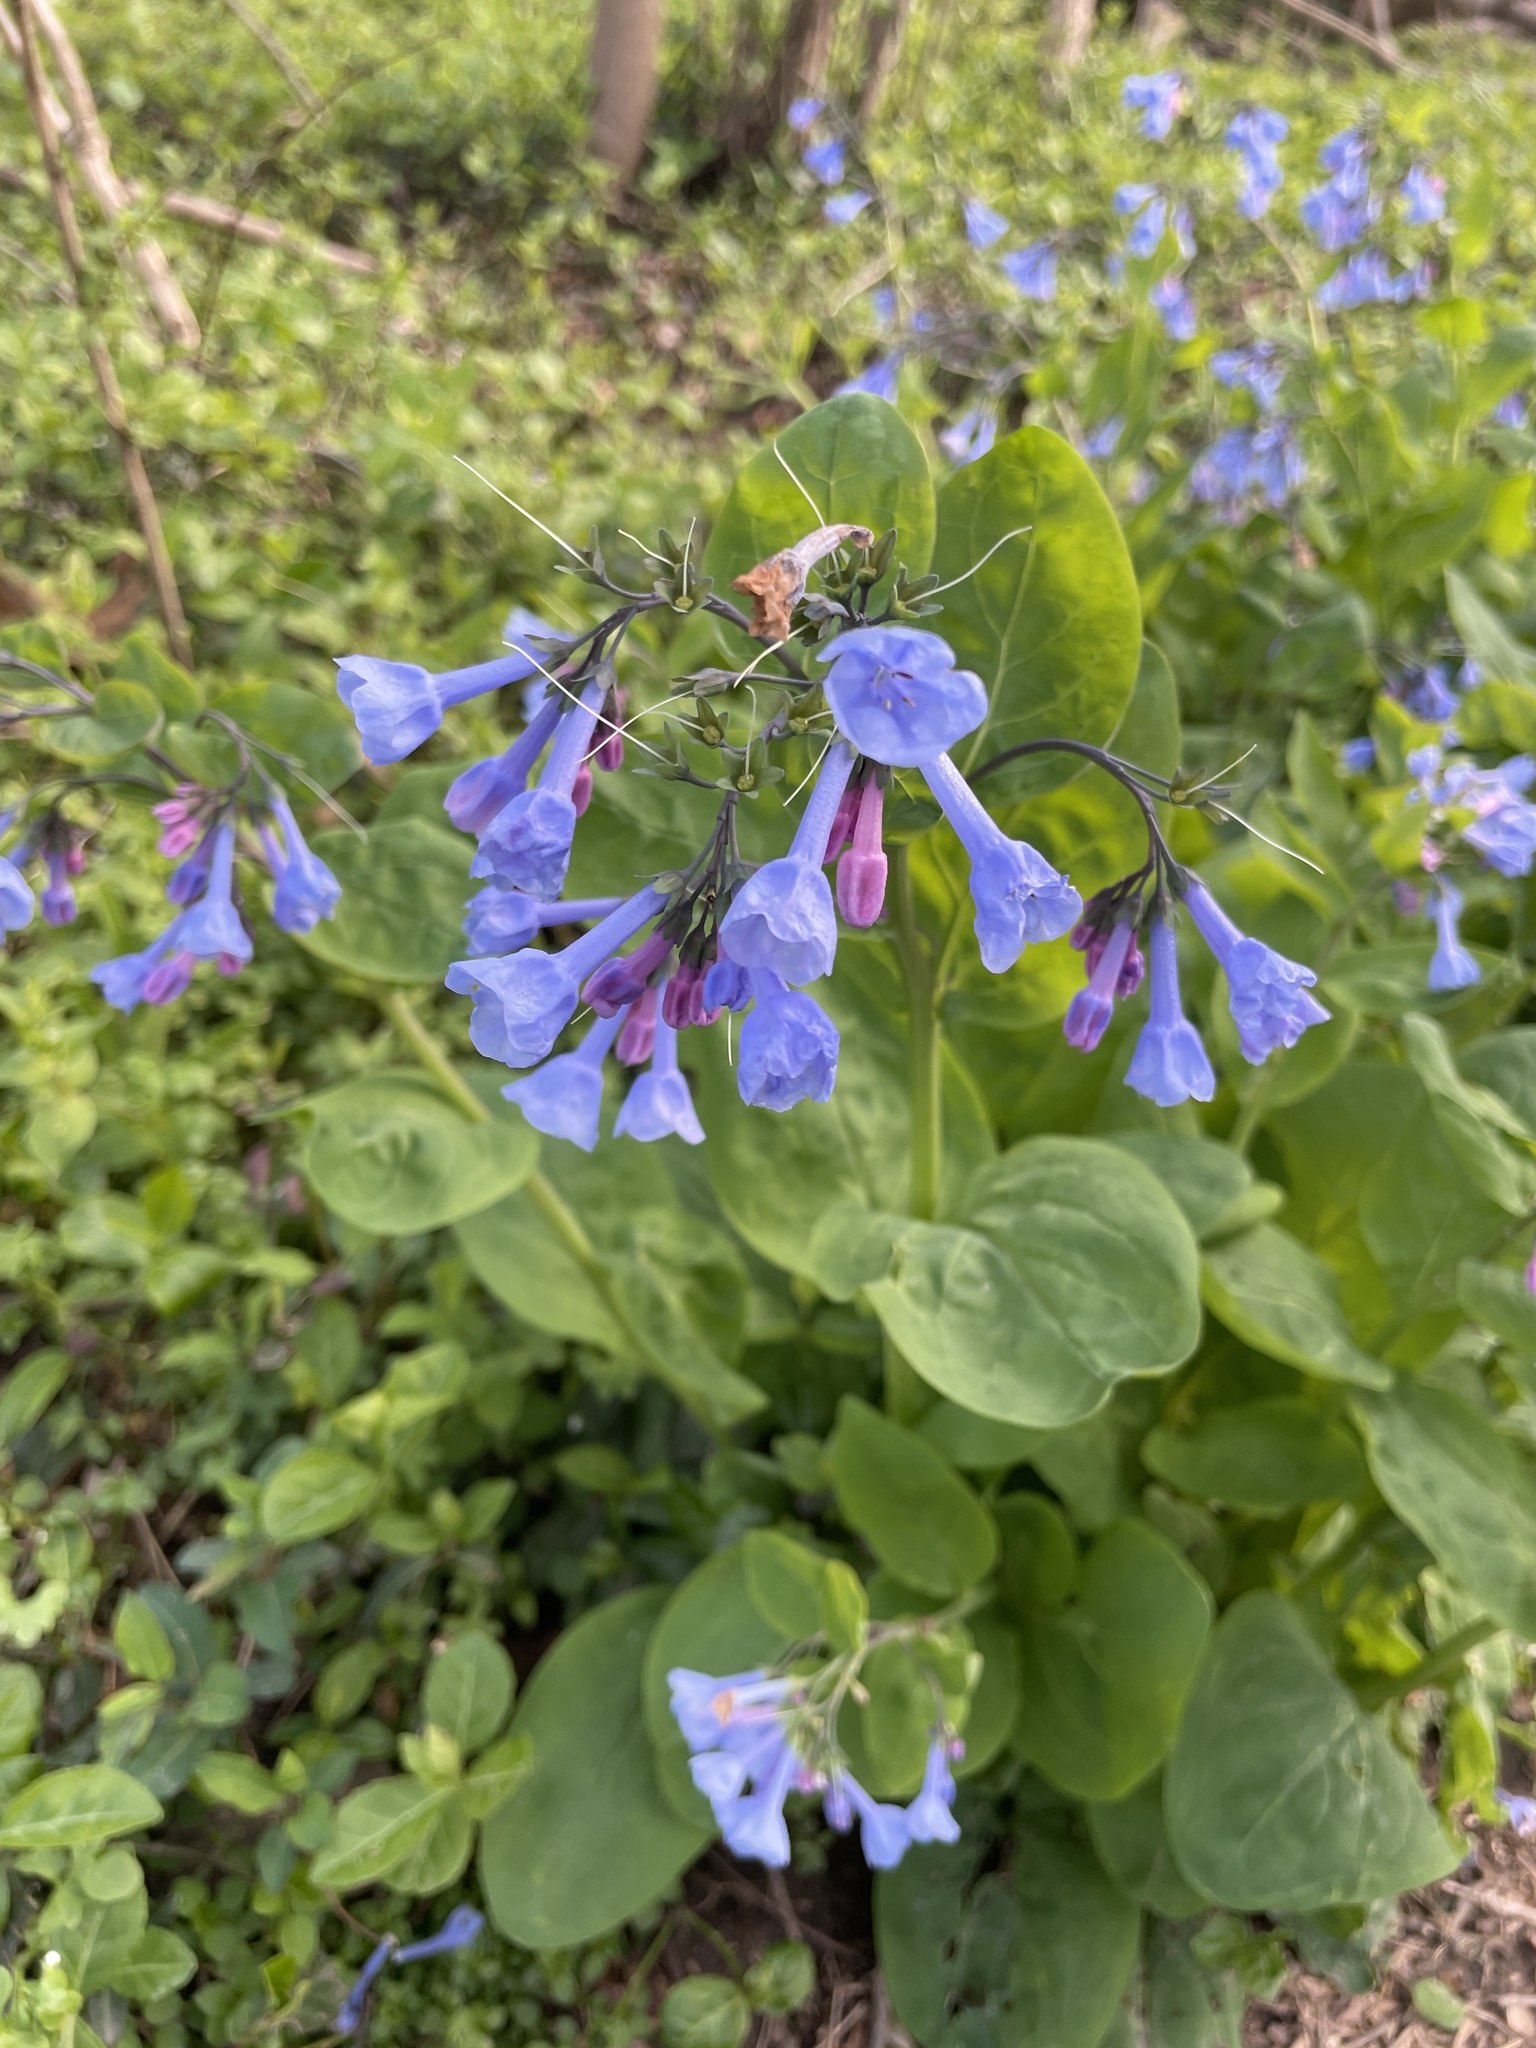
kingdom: Plantae
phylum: Tracheophyta
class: Magnoliopsida
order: Boraginales
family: Boraginaceae
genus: Mertensia
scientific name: Mertensia virginica
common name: Virginia bluebells
